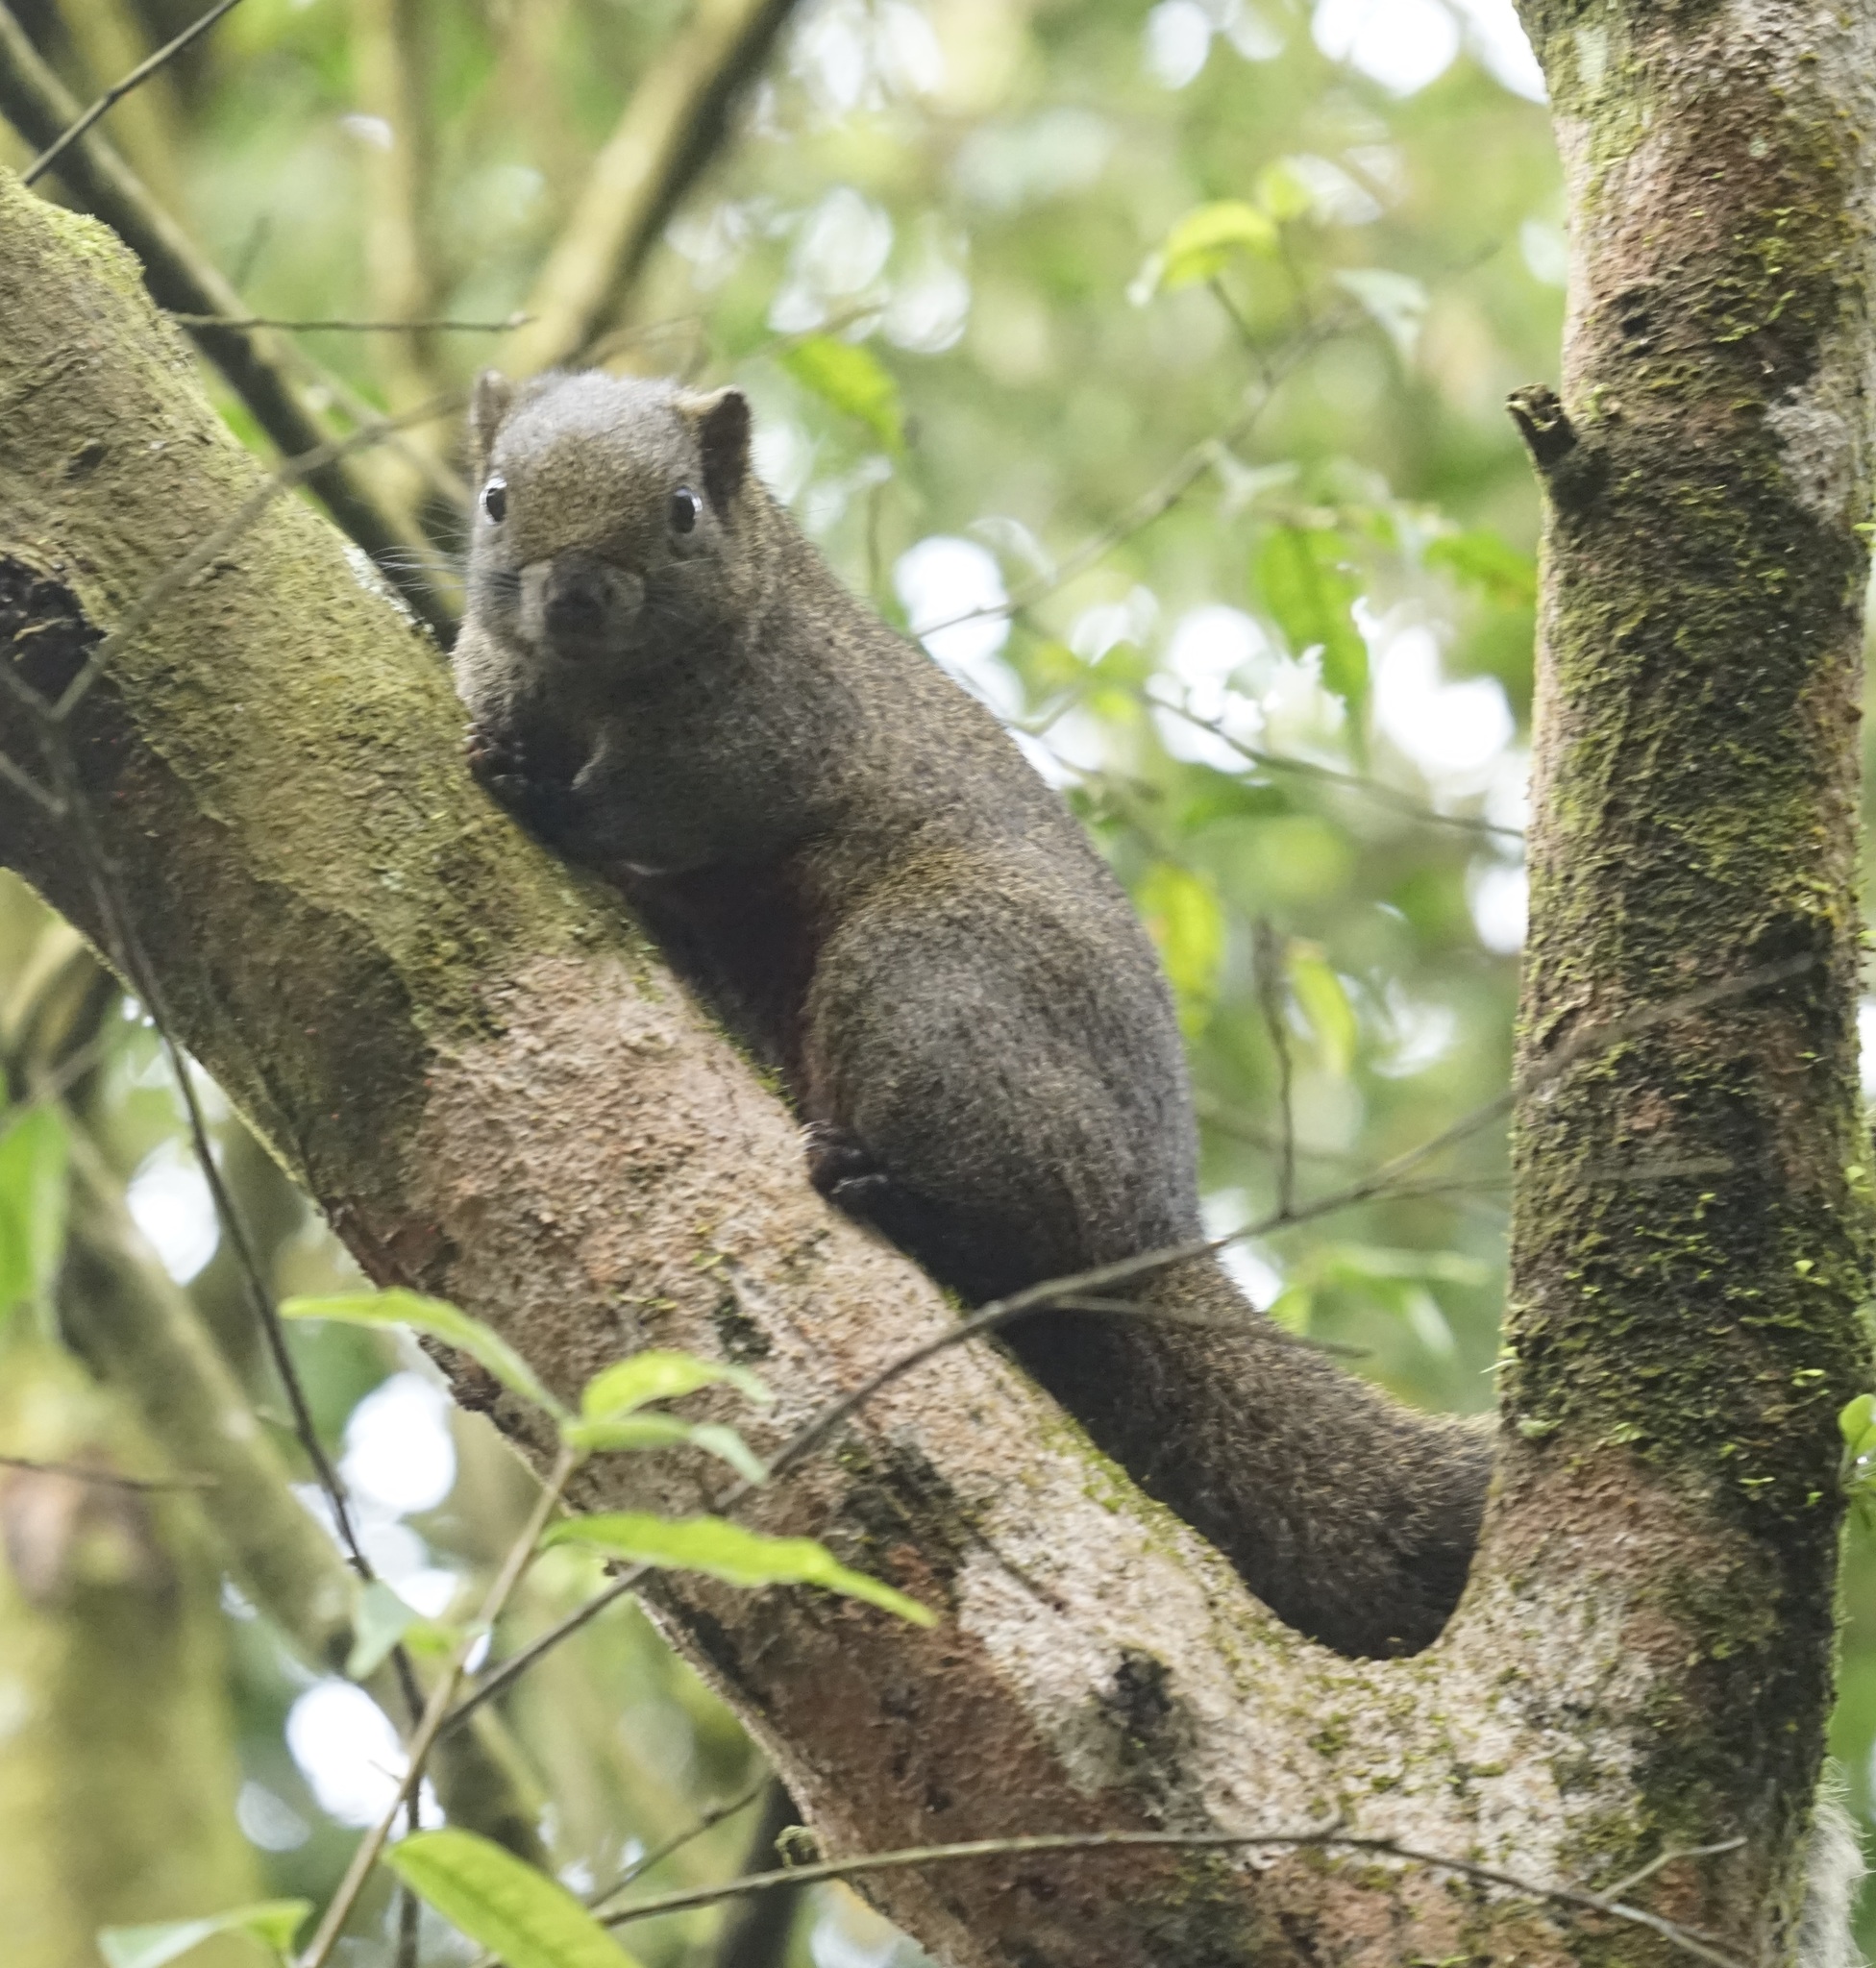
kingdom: Animalia
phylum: Chordata
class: Mammalia
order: Rodentia
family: Sciuridae
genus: Callosciurus
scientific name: Callosciurus erythraeus
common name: Pallas's squirrel
